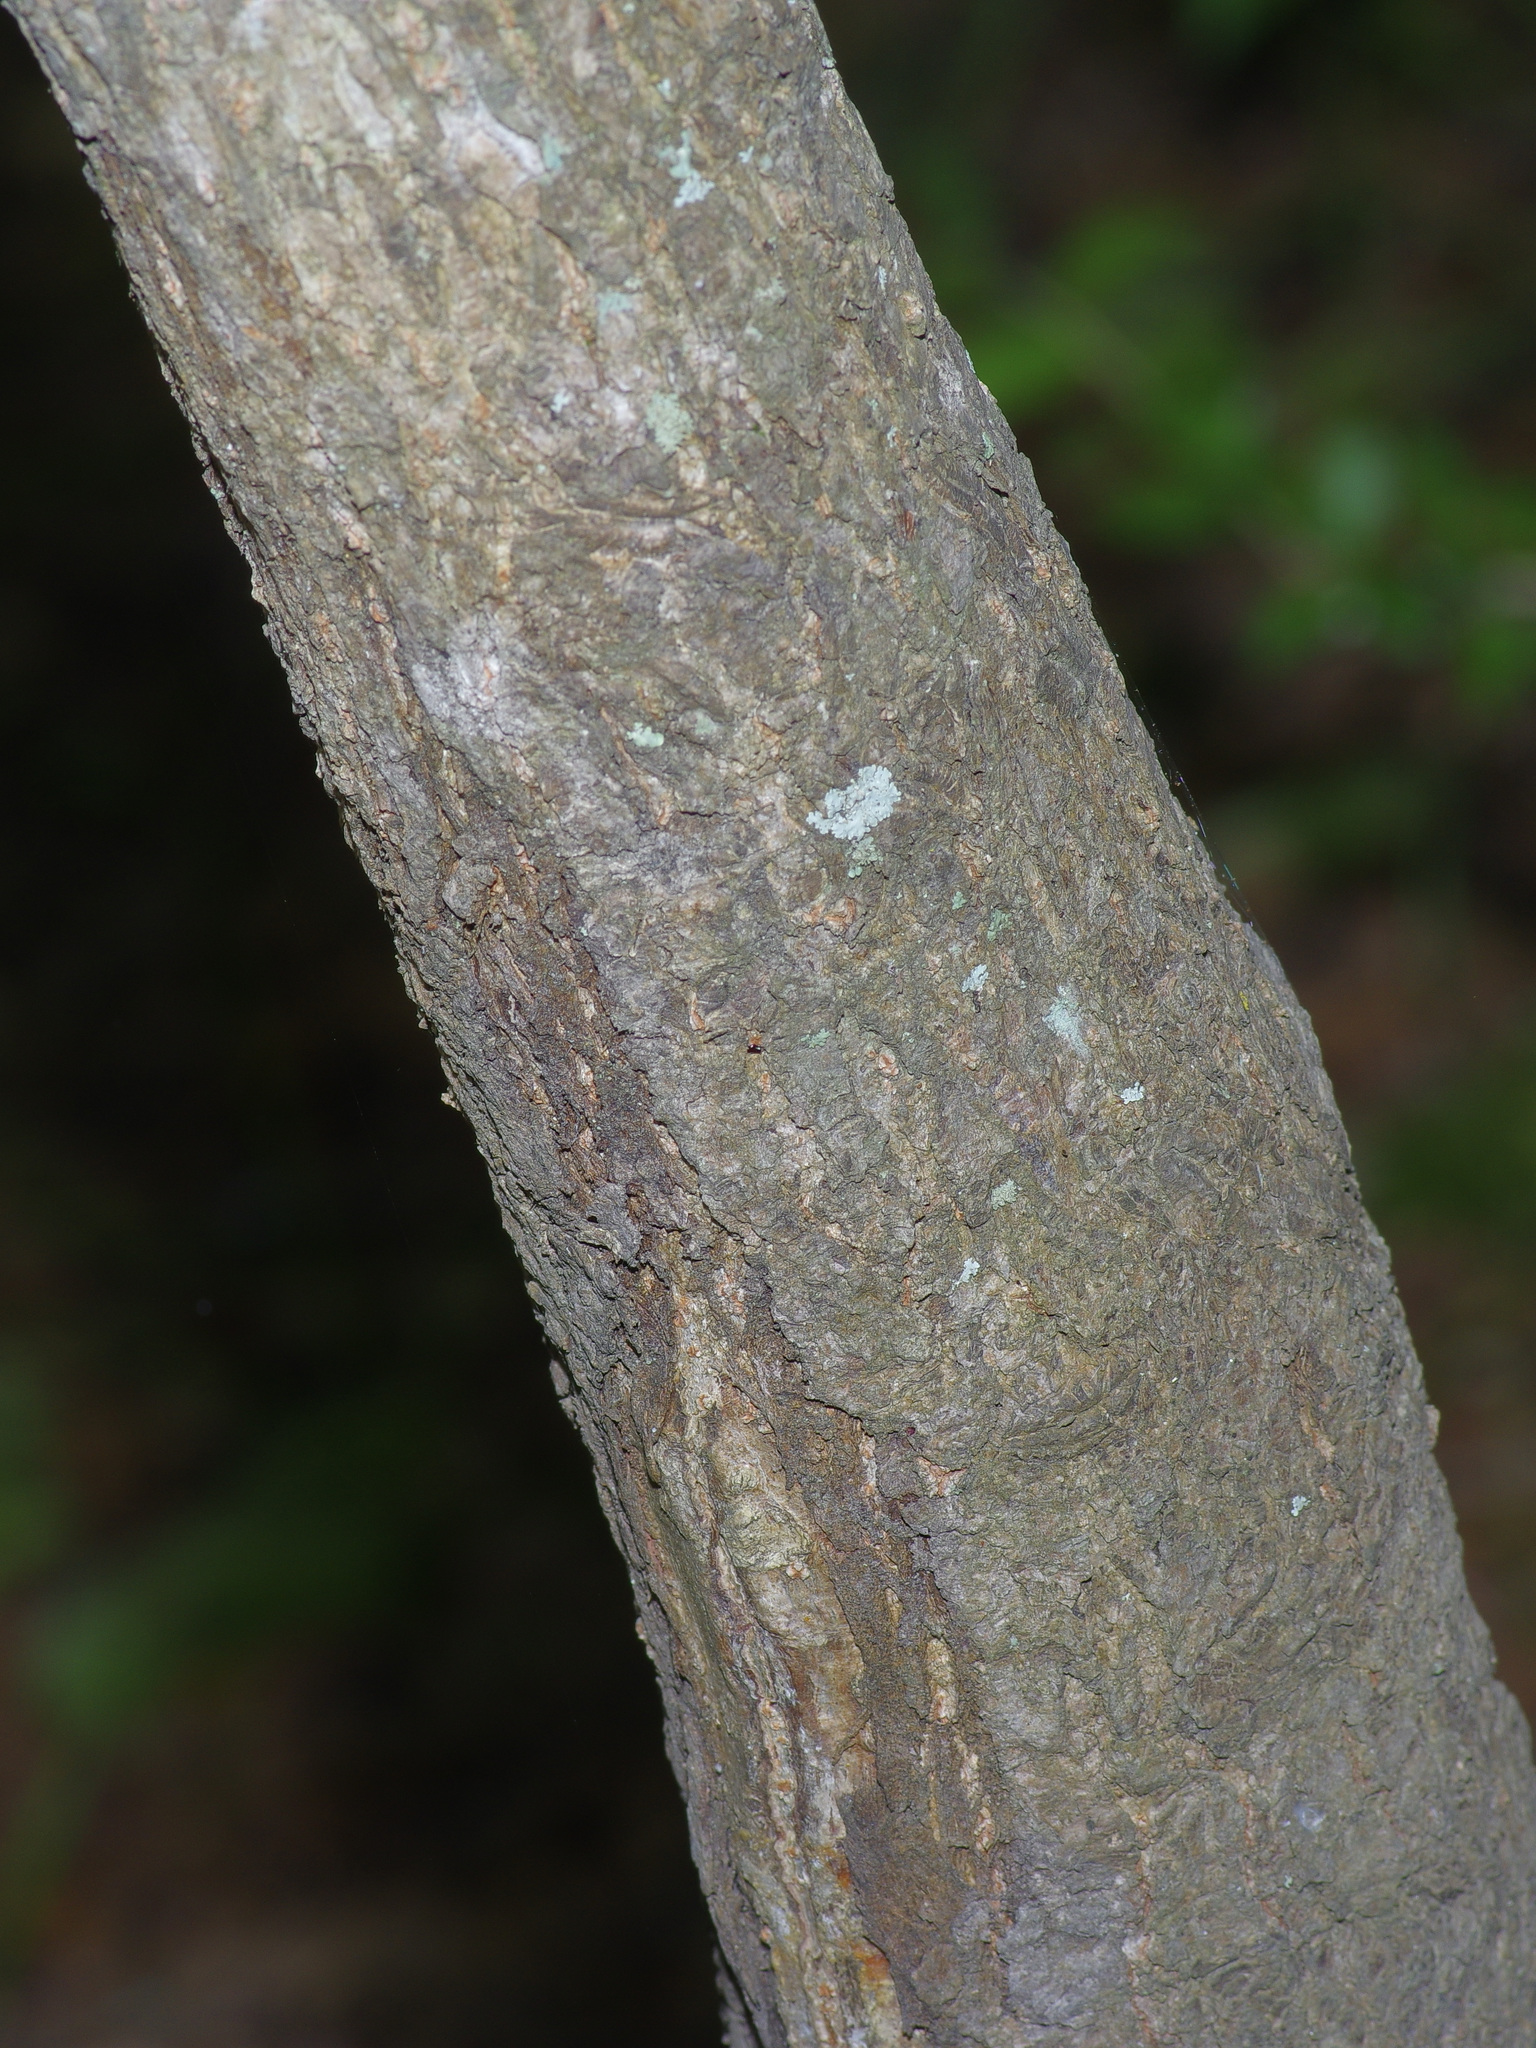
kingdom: Plantae
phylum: Tracheophyta
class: Magnoliopsida
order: Saxifragales
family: Altingiaceae
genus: Liquidambar
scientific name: Liquidambar styraciflua
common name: Sweet gum
